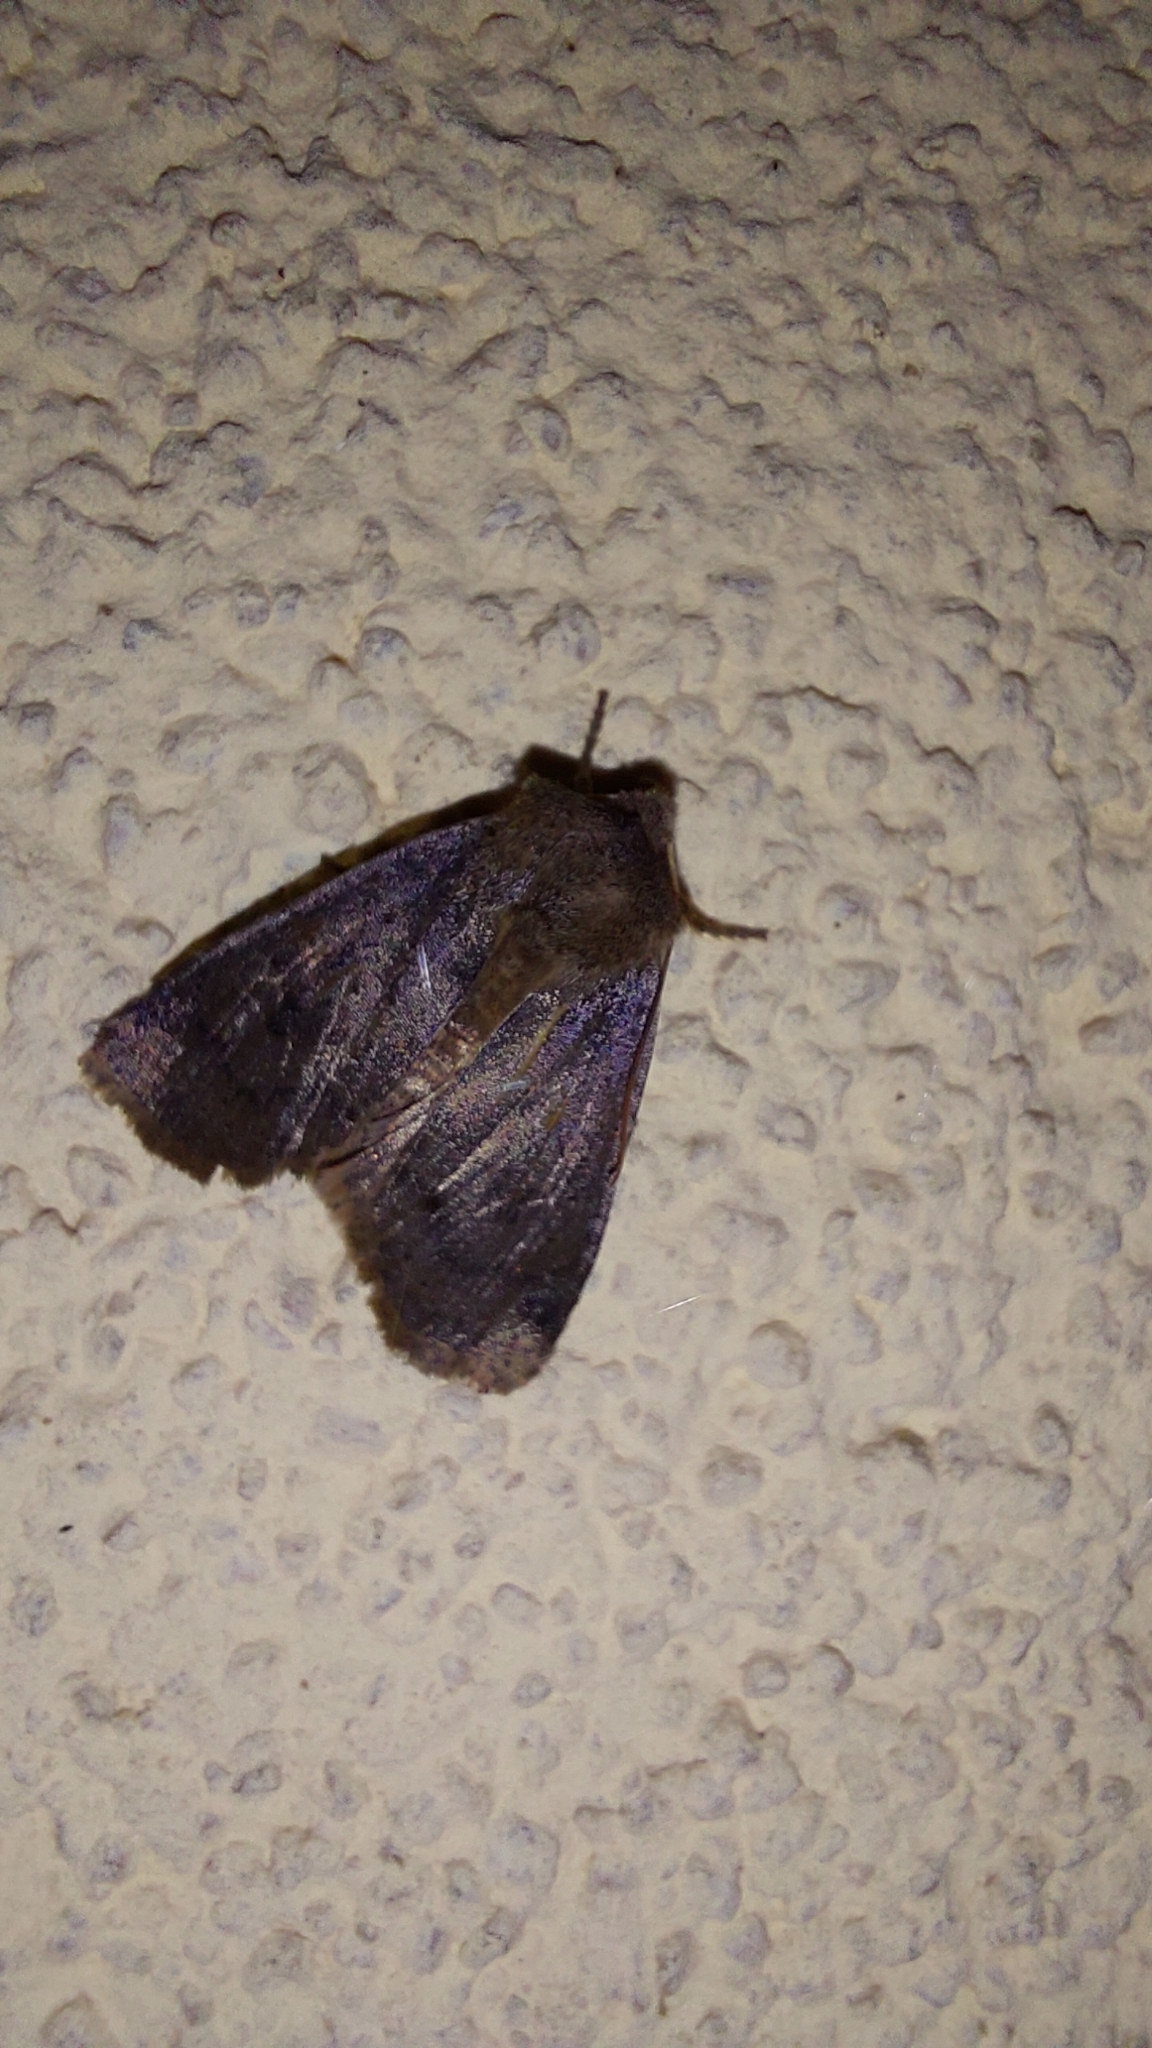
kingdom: Animalia
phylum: Arthropoda
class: Insecta
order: Lepidoptera
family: Noctuidae
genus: Conistra
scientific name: Conistra vaccinii
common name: Chestnut
